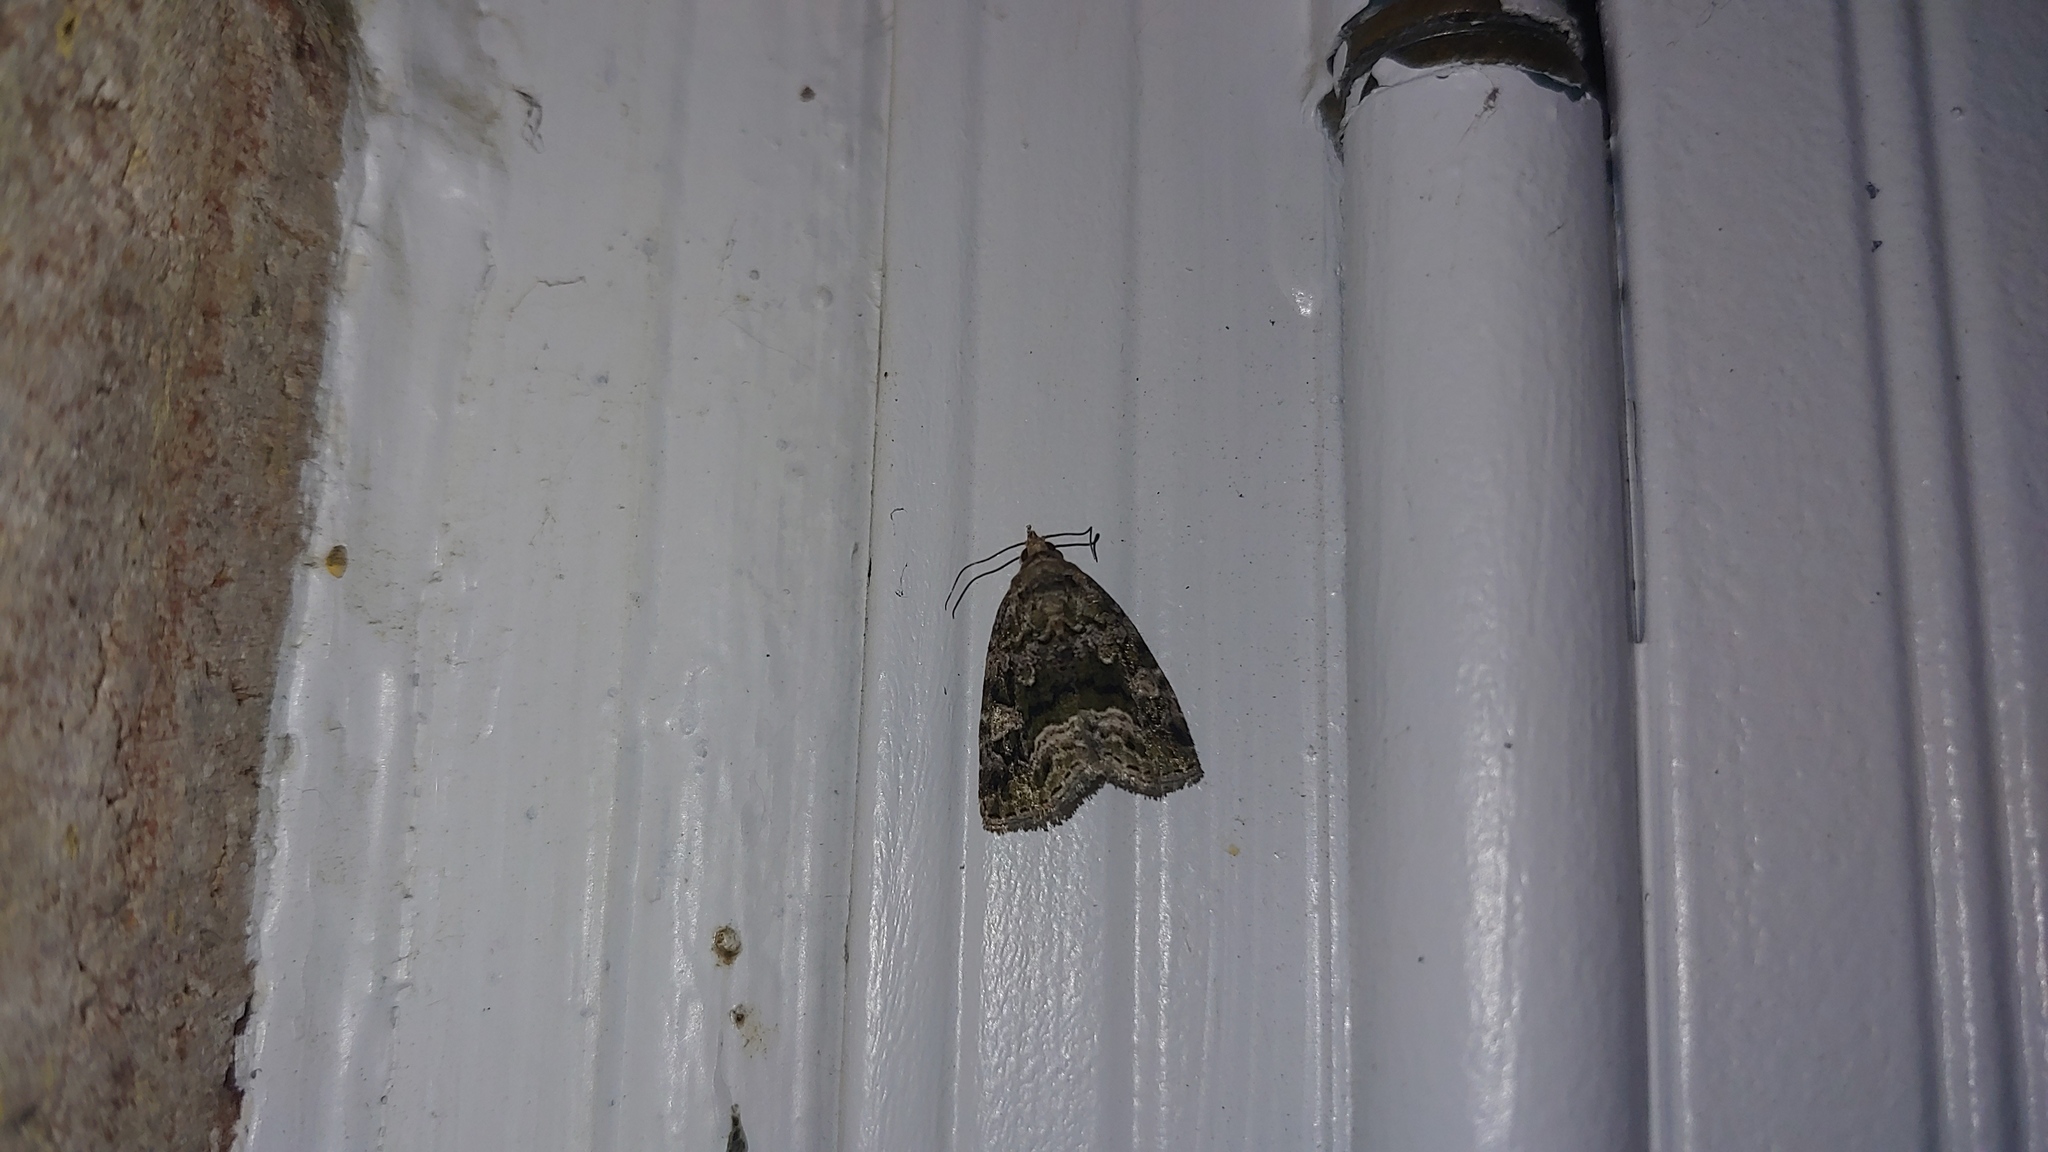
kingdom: Animalia
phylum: Arthropoda
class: Insecta
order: Lepidoptera
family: Noctuidae
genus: Protodeltote
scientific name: Protodeltote muscosula
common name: Large mossy glyph
